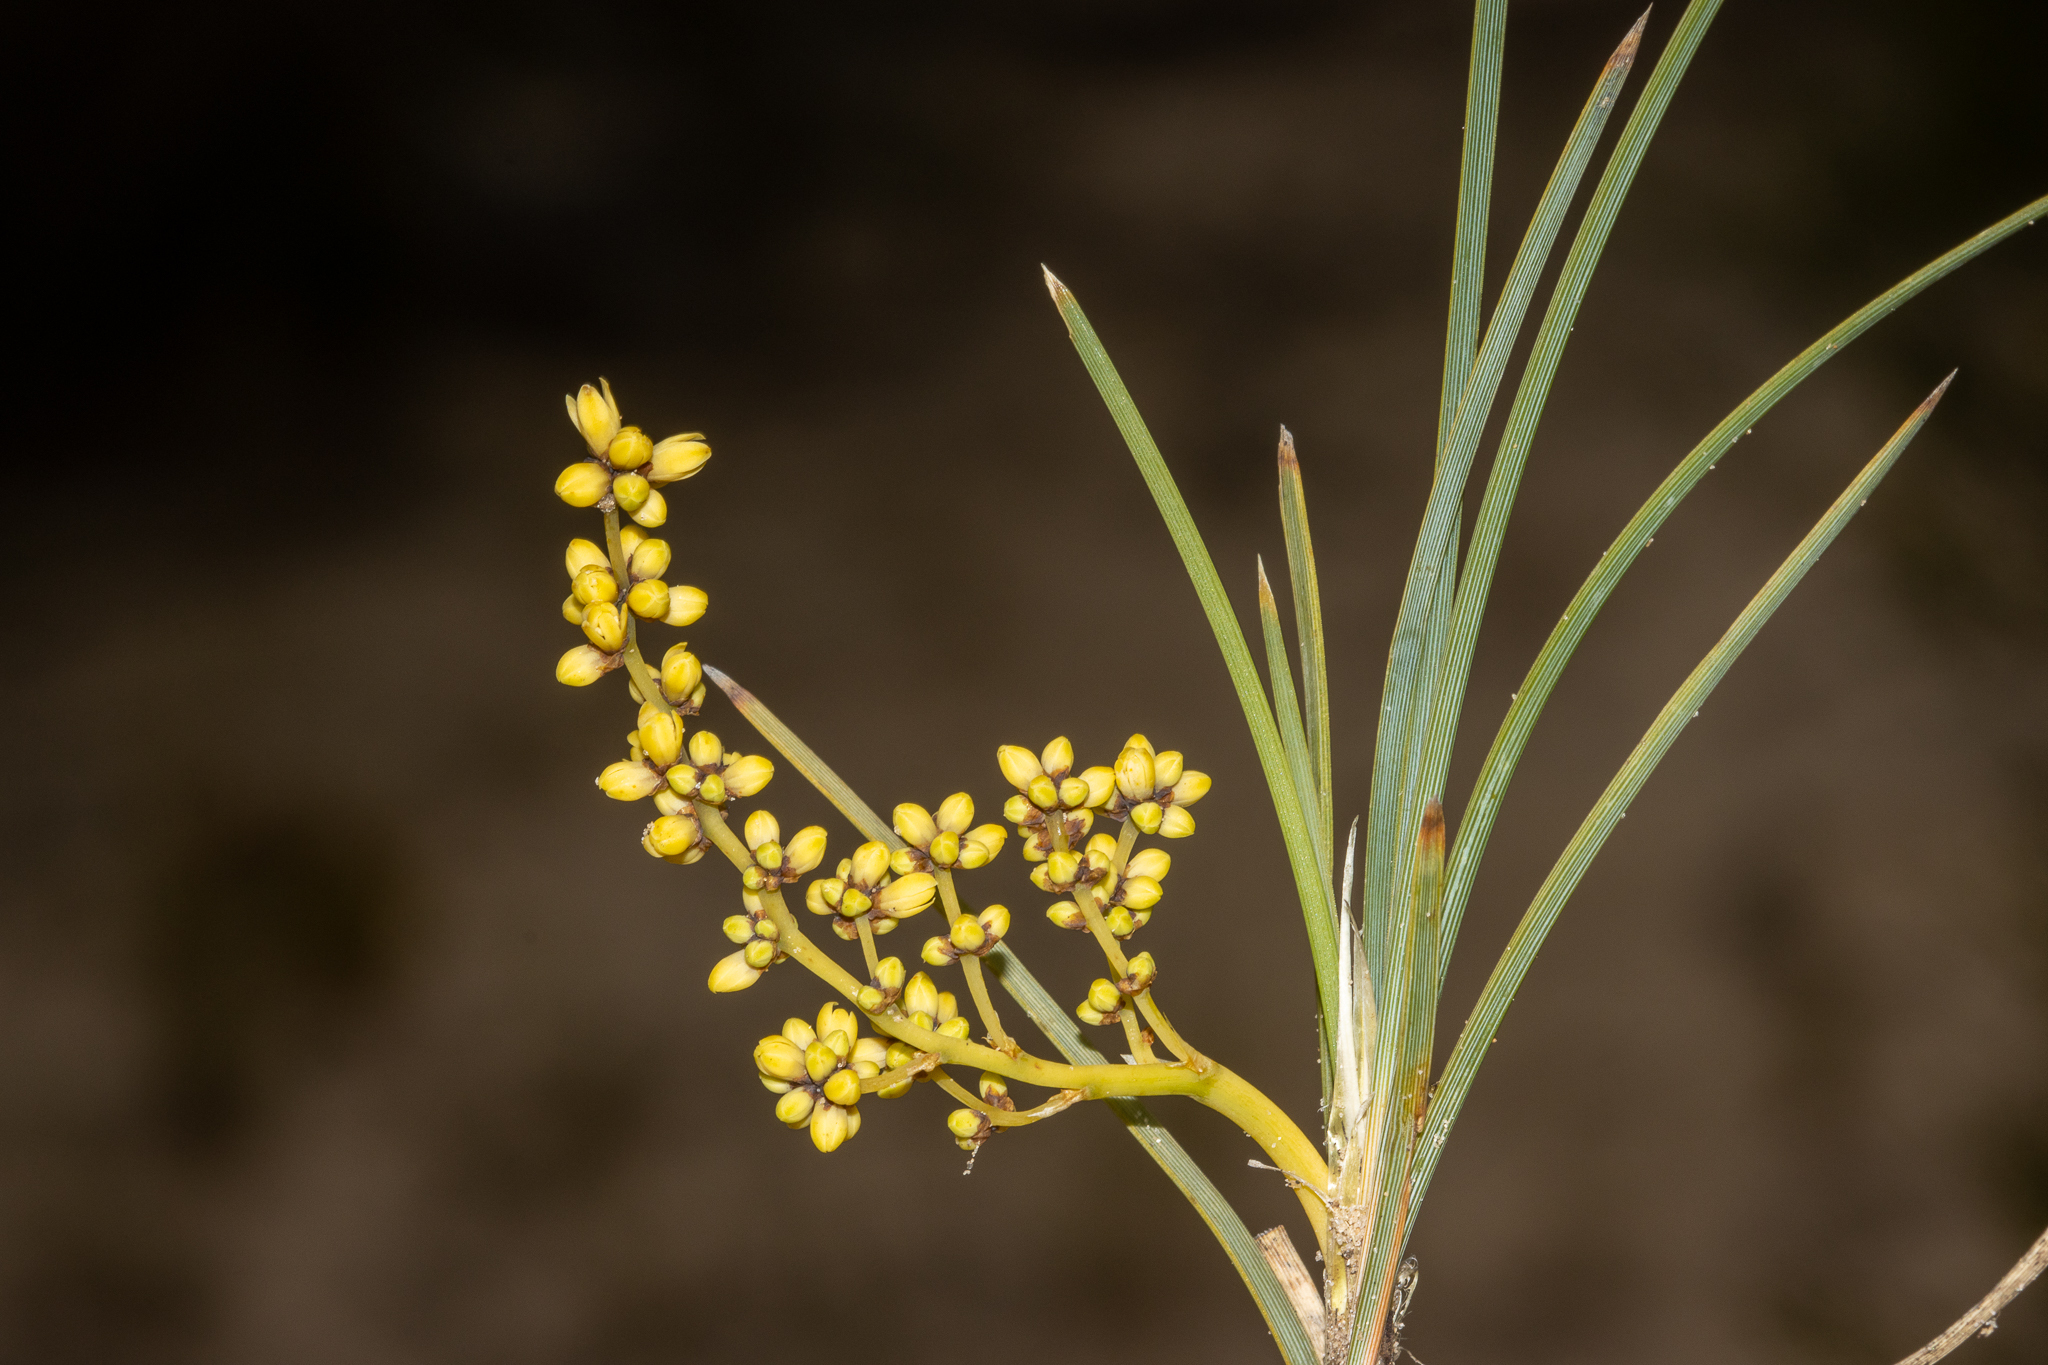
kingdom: Plantae
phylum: Tracheophyta
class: Liliopsida
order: Asparagales
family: Asparagaceae
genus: Lomandra
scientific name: Lomandra collina
